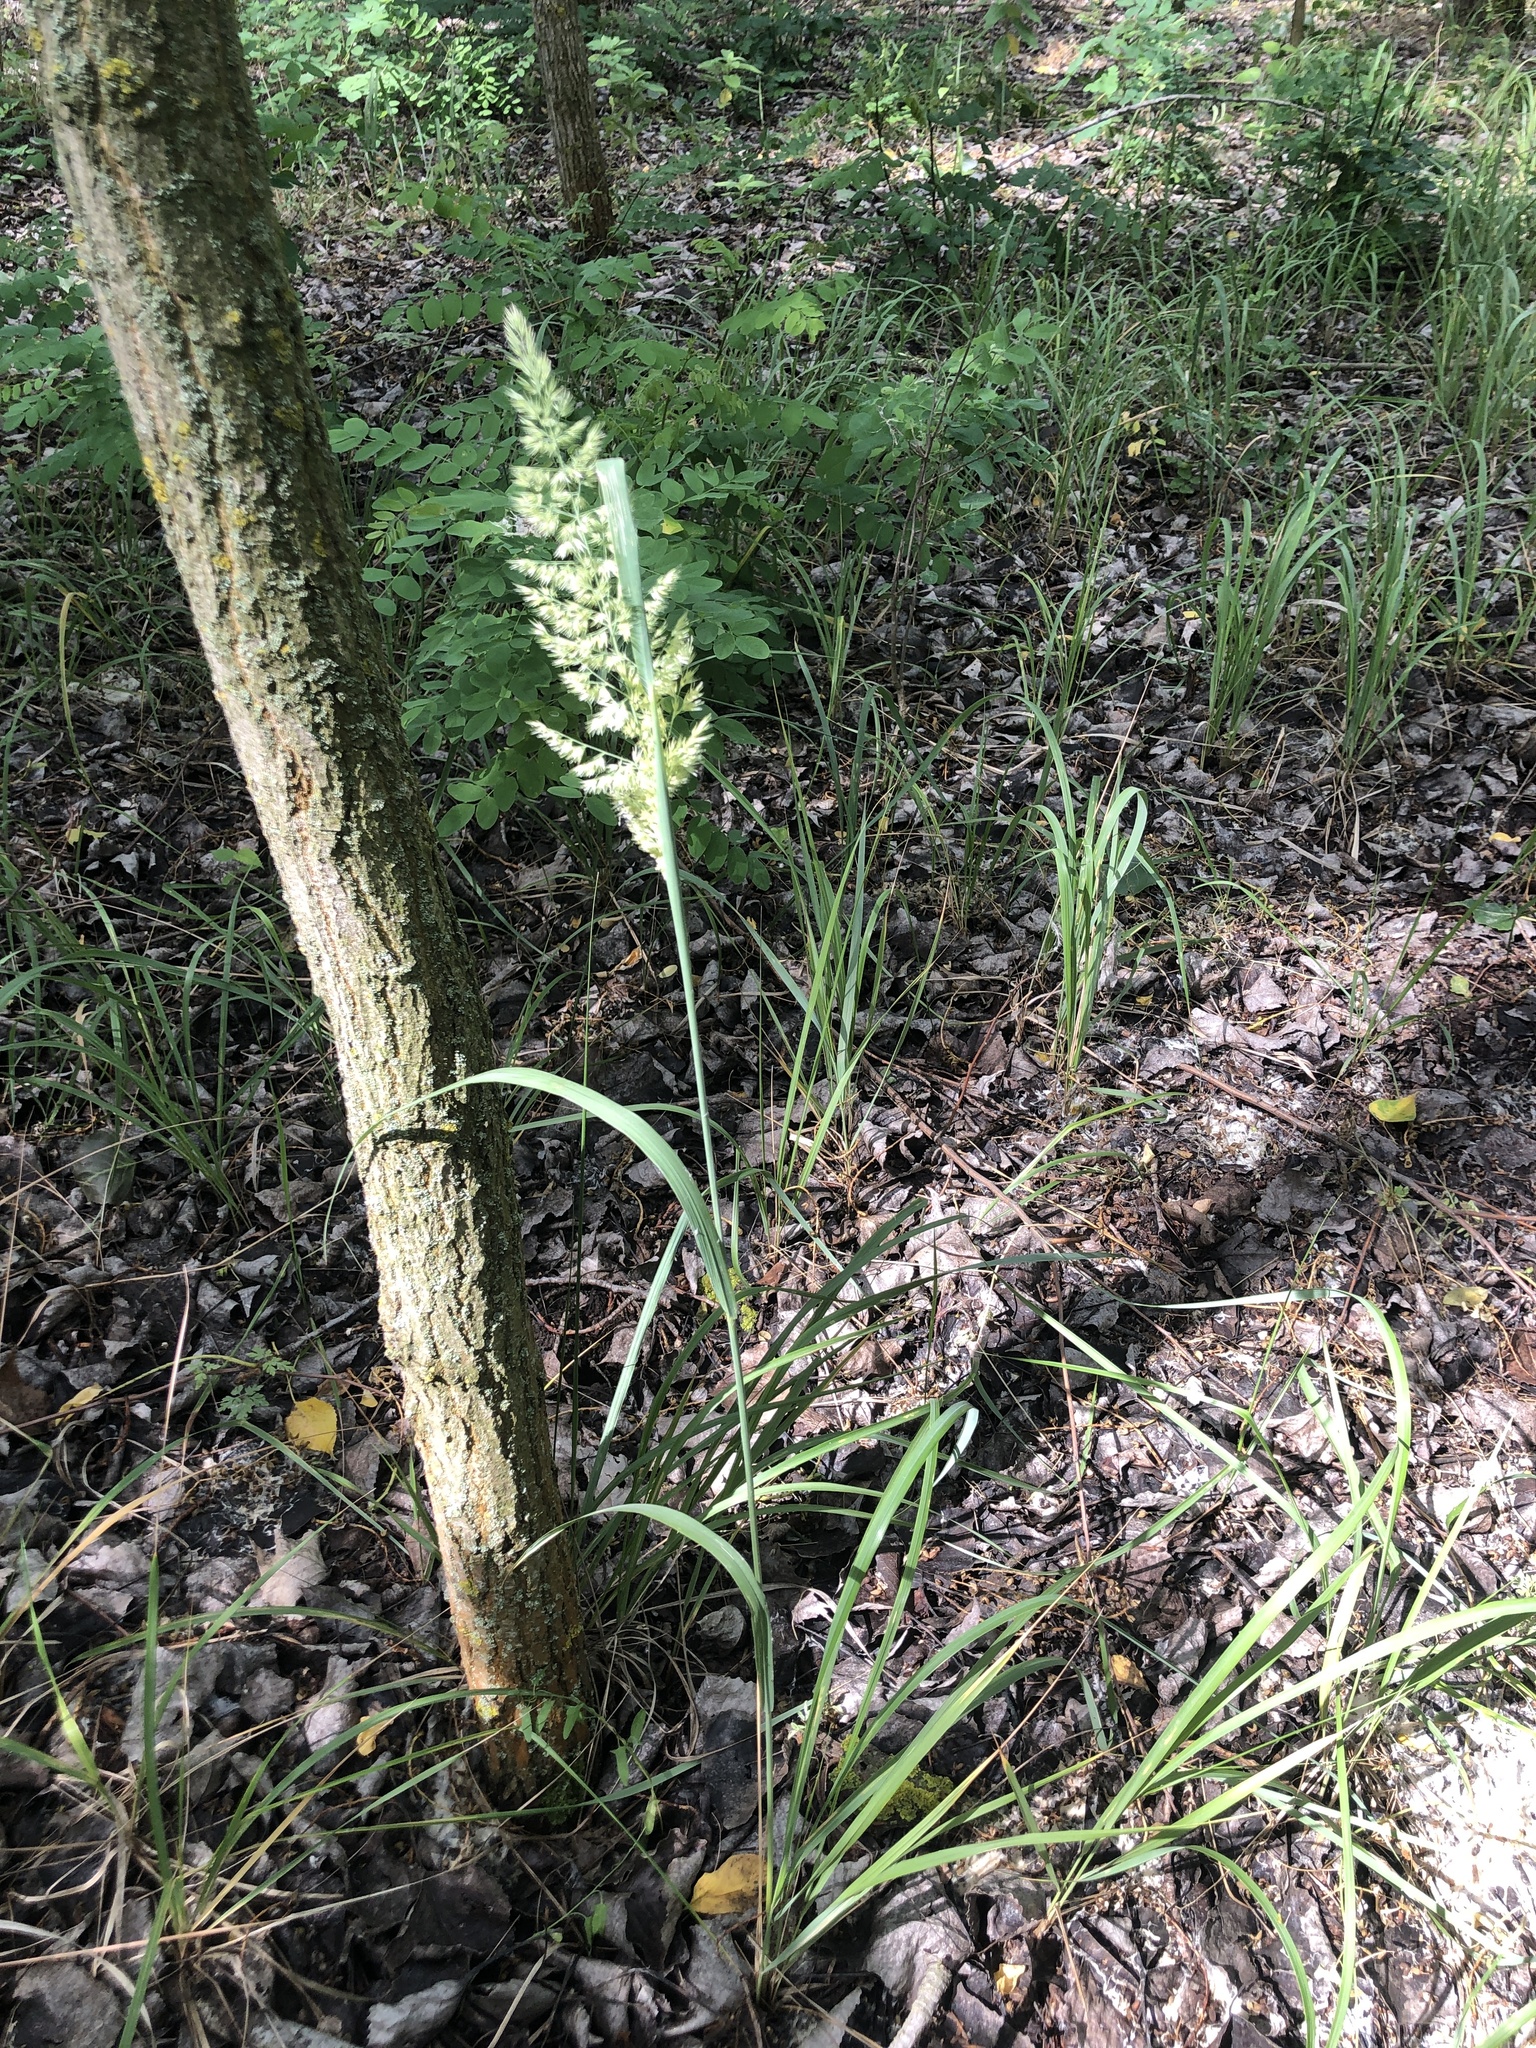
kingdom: Plantae
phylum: Tracheophyta
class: Liliopsida
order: Poales
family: Poaceae
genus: Calamagrostis
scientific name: Calamagrostis epigejos
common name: Wood small-reed
